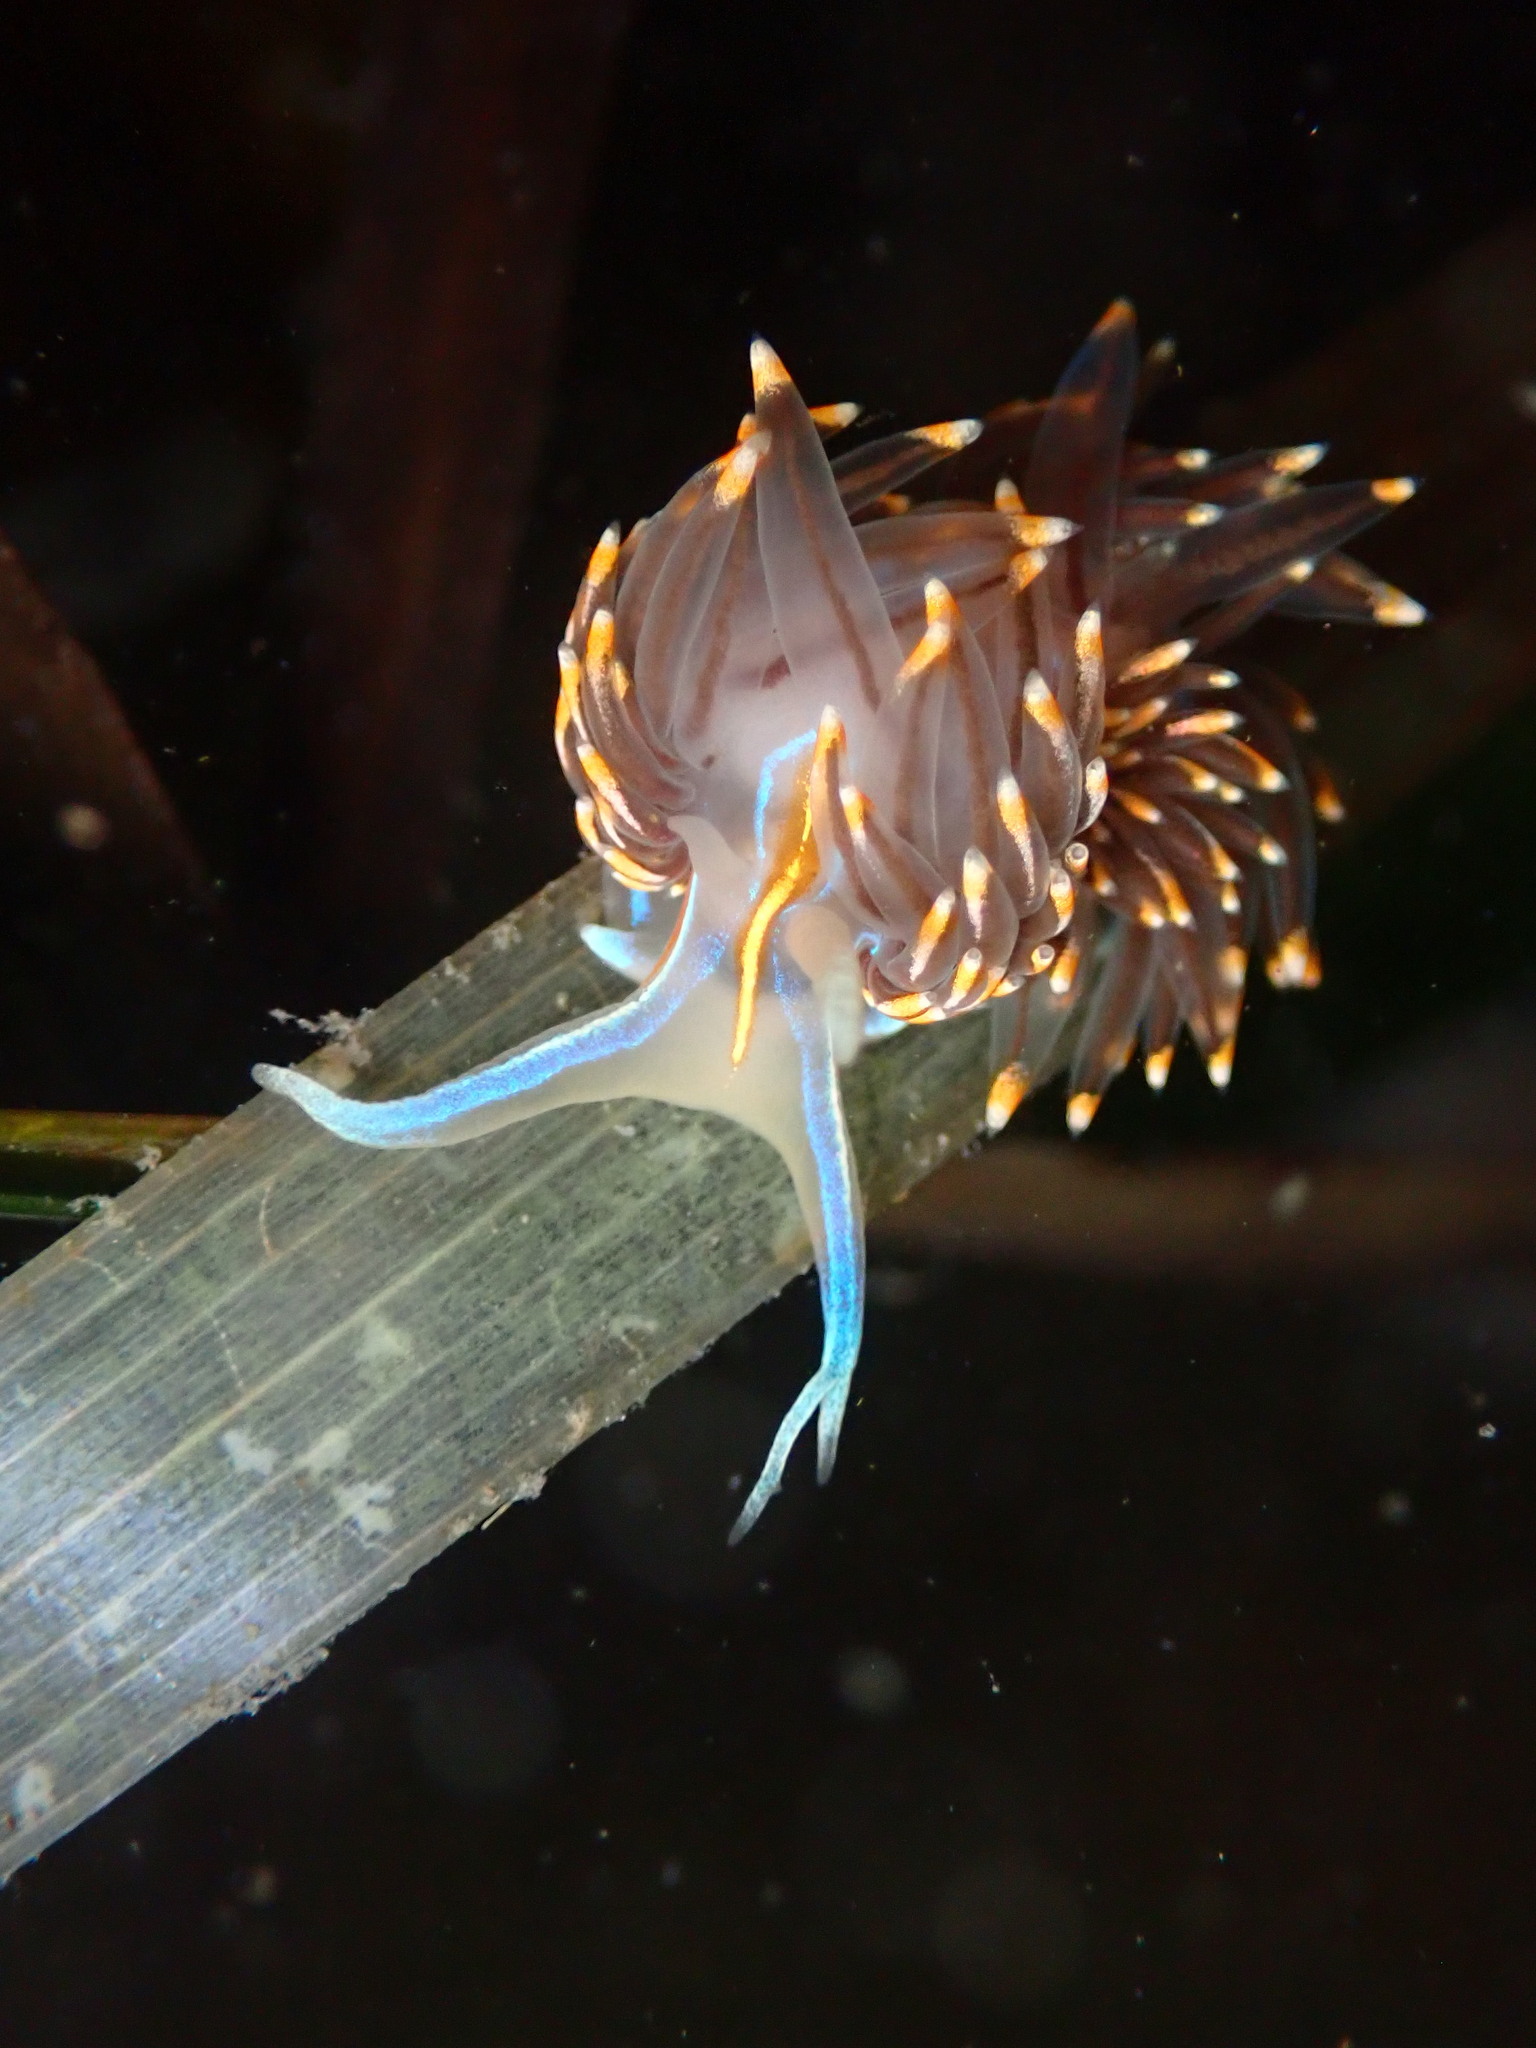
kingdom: Animalia
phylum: Mollusca
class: Gastropoda
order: Nudibranchia
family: Myrrhinidae
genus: Hermissenda
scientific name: Hermissenda opalescens
